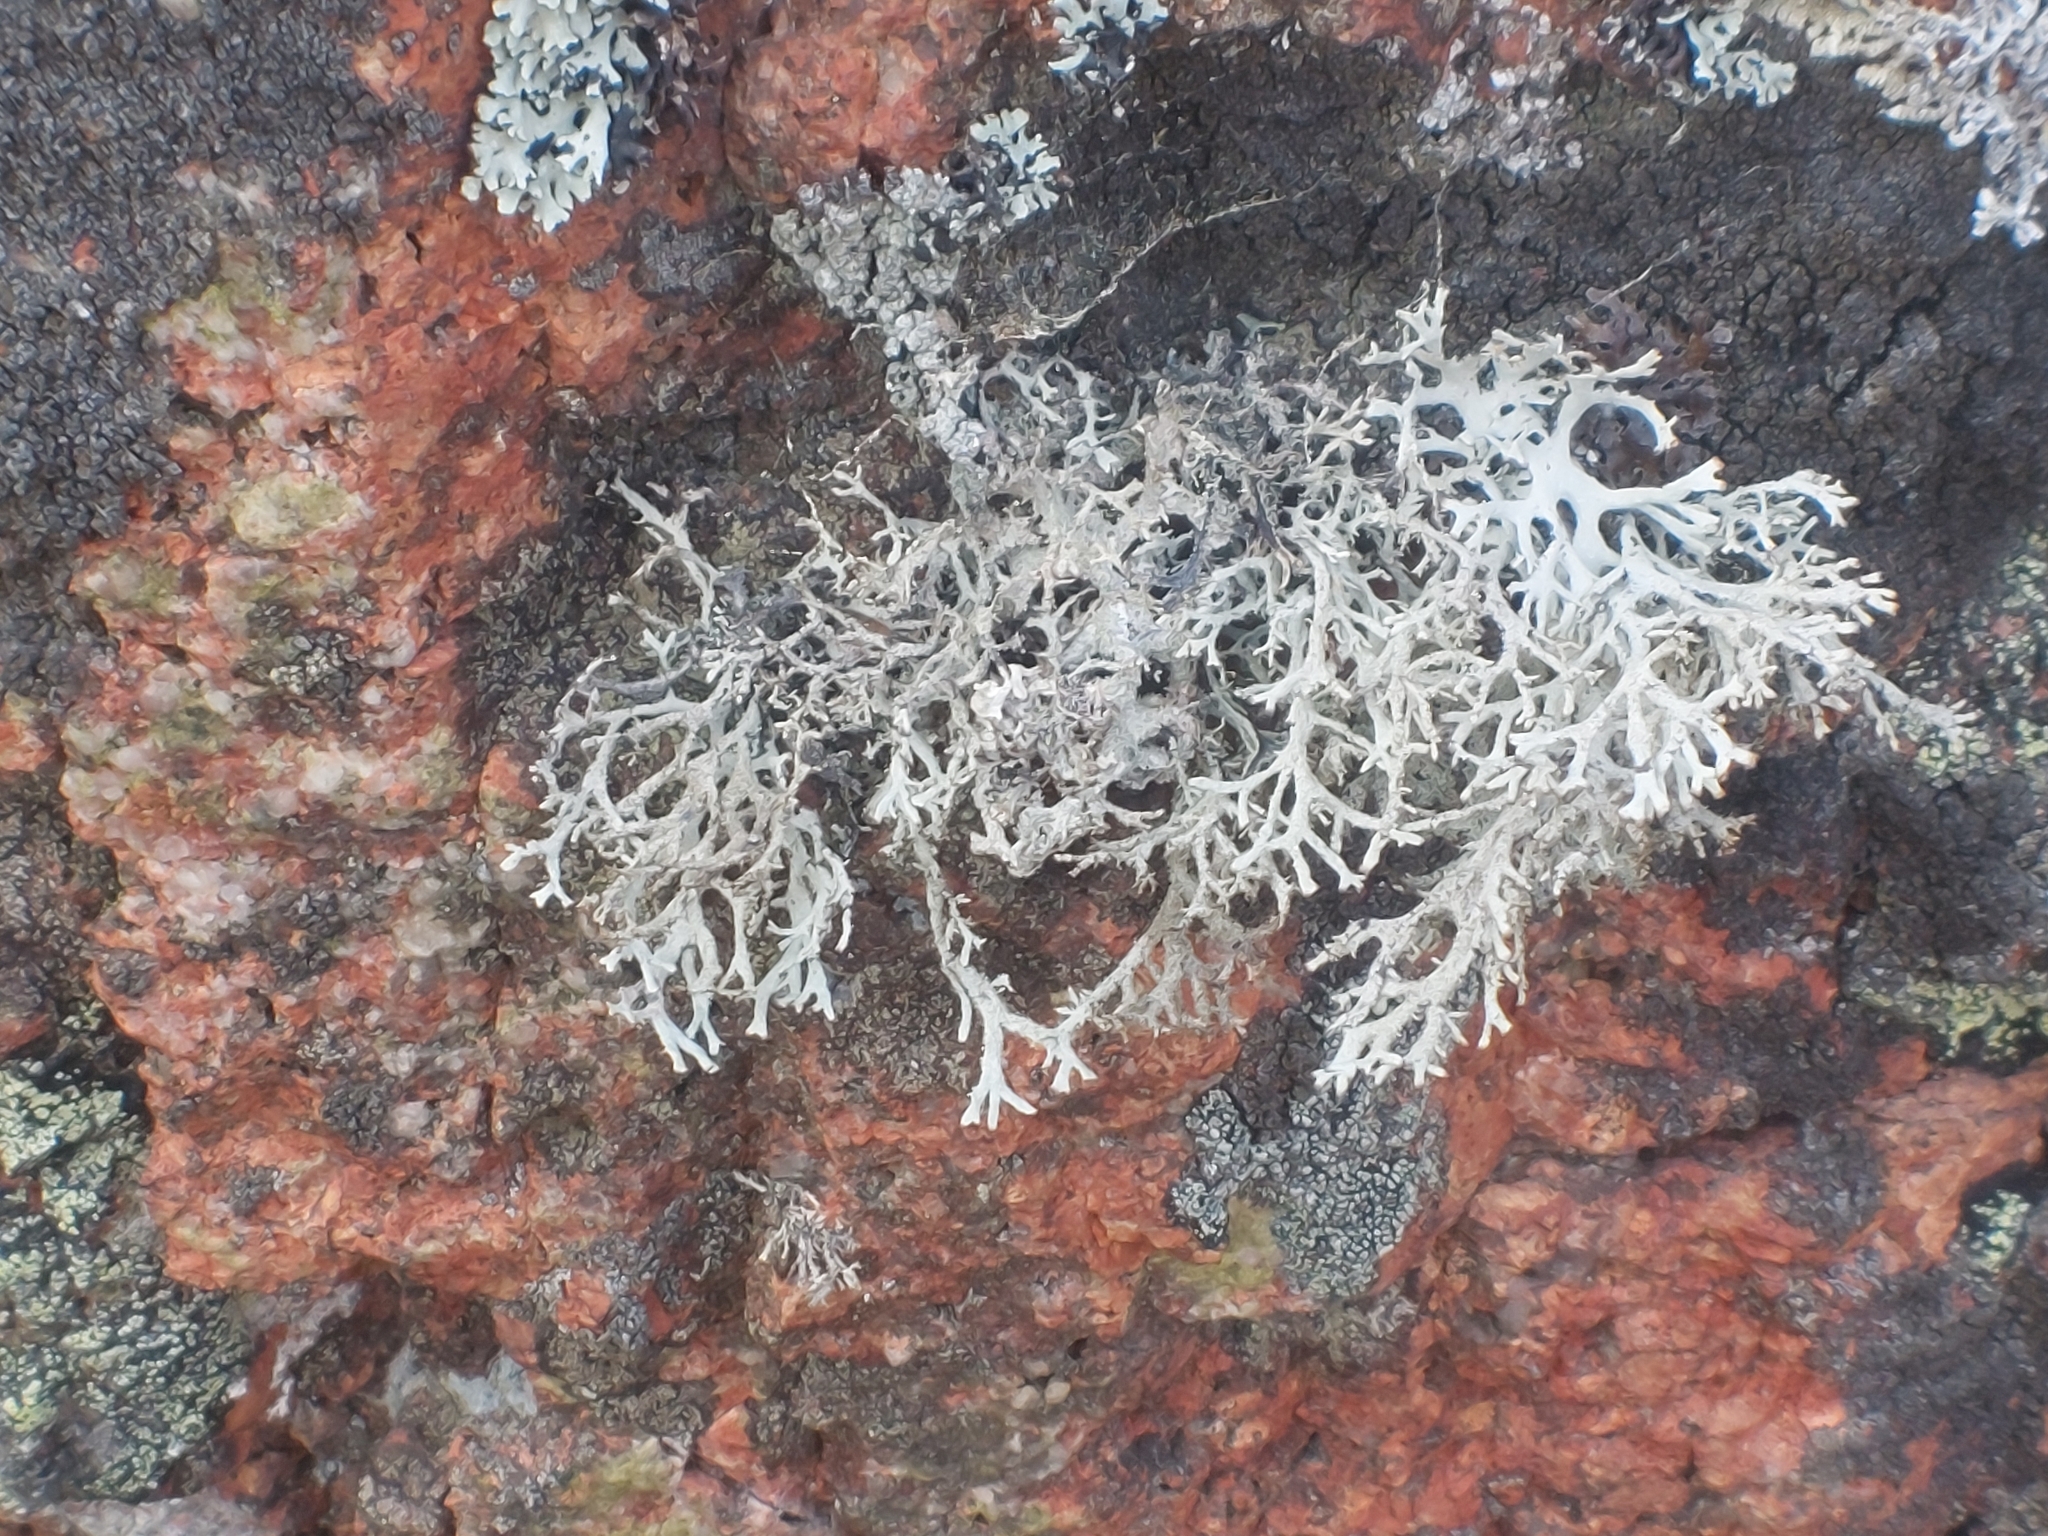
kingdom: Fungi
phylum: Ascomycota
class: Lecanoromycetes
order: Lecanorales
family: Parmeliaceae
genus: Pseudevernia
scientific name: Pseudevernia furfuracea
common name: Tree moss
